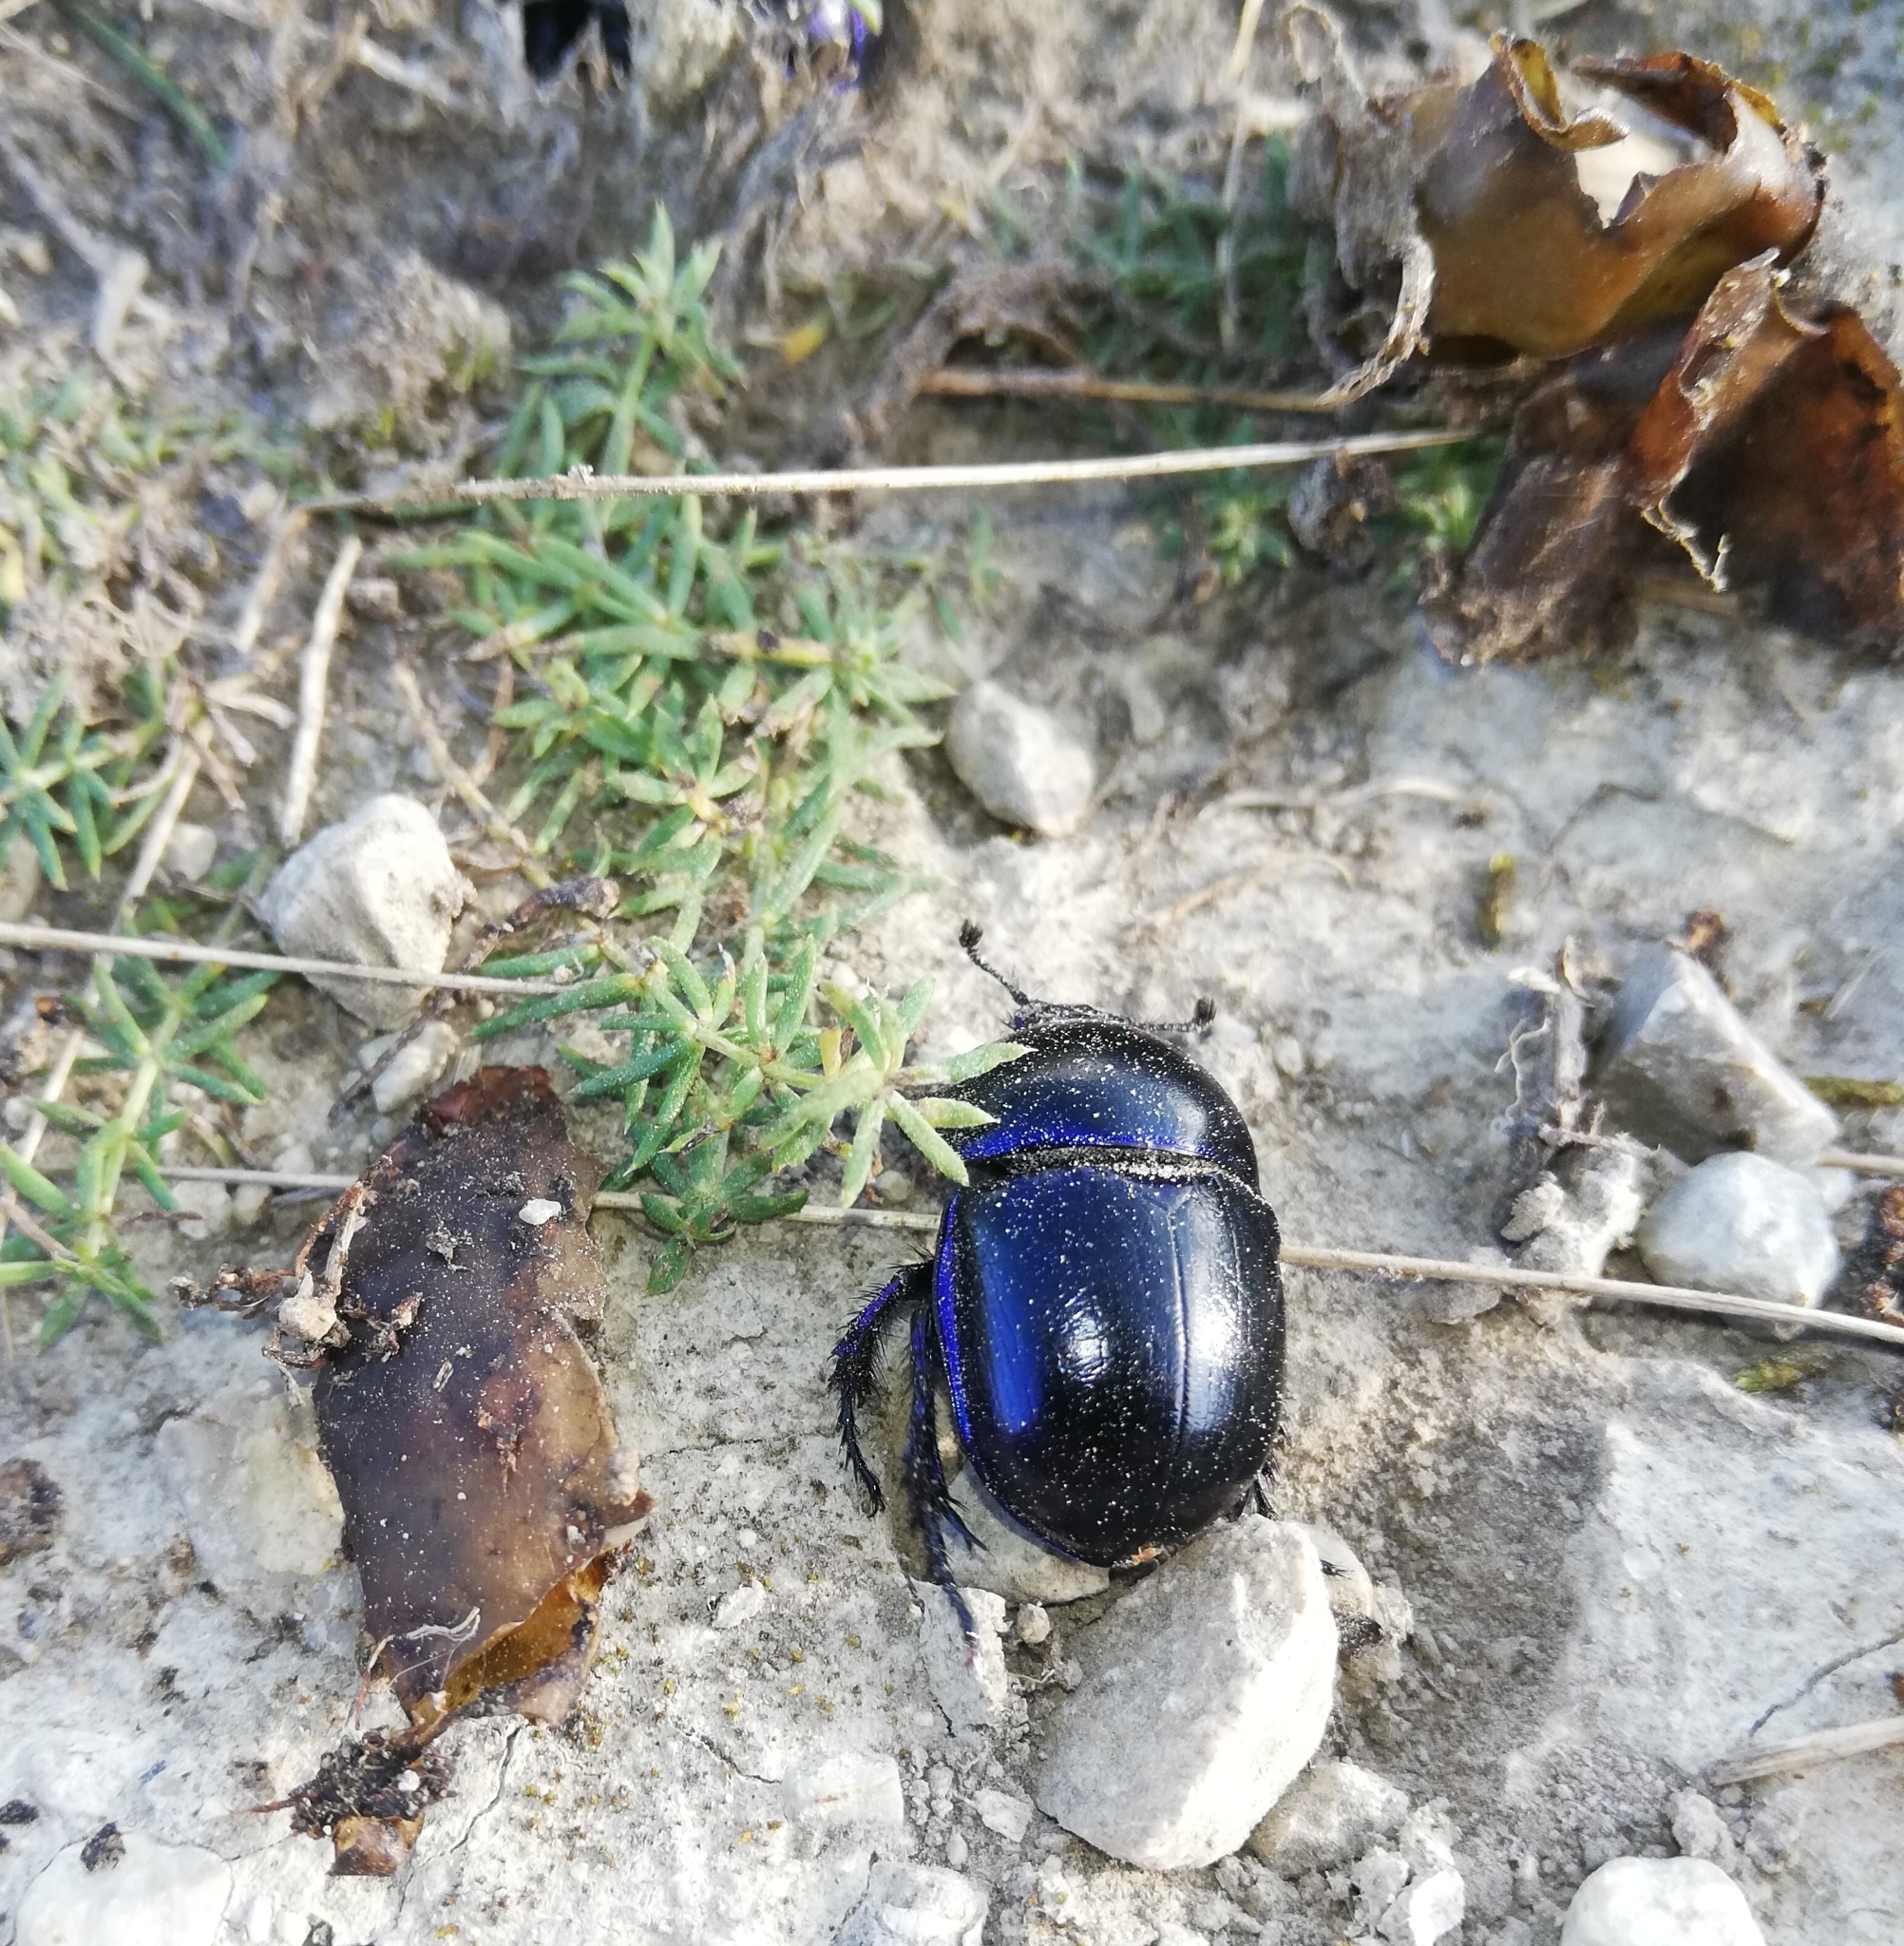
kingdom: Animalia
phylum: Arthropoda
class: Insecta
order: Coleoptera
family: Geotrupidae
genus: Trypocopris
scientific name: Trypocopris vernalis
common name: Spring dumbledor
